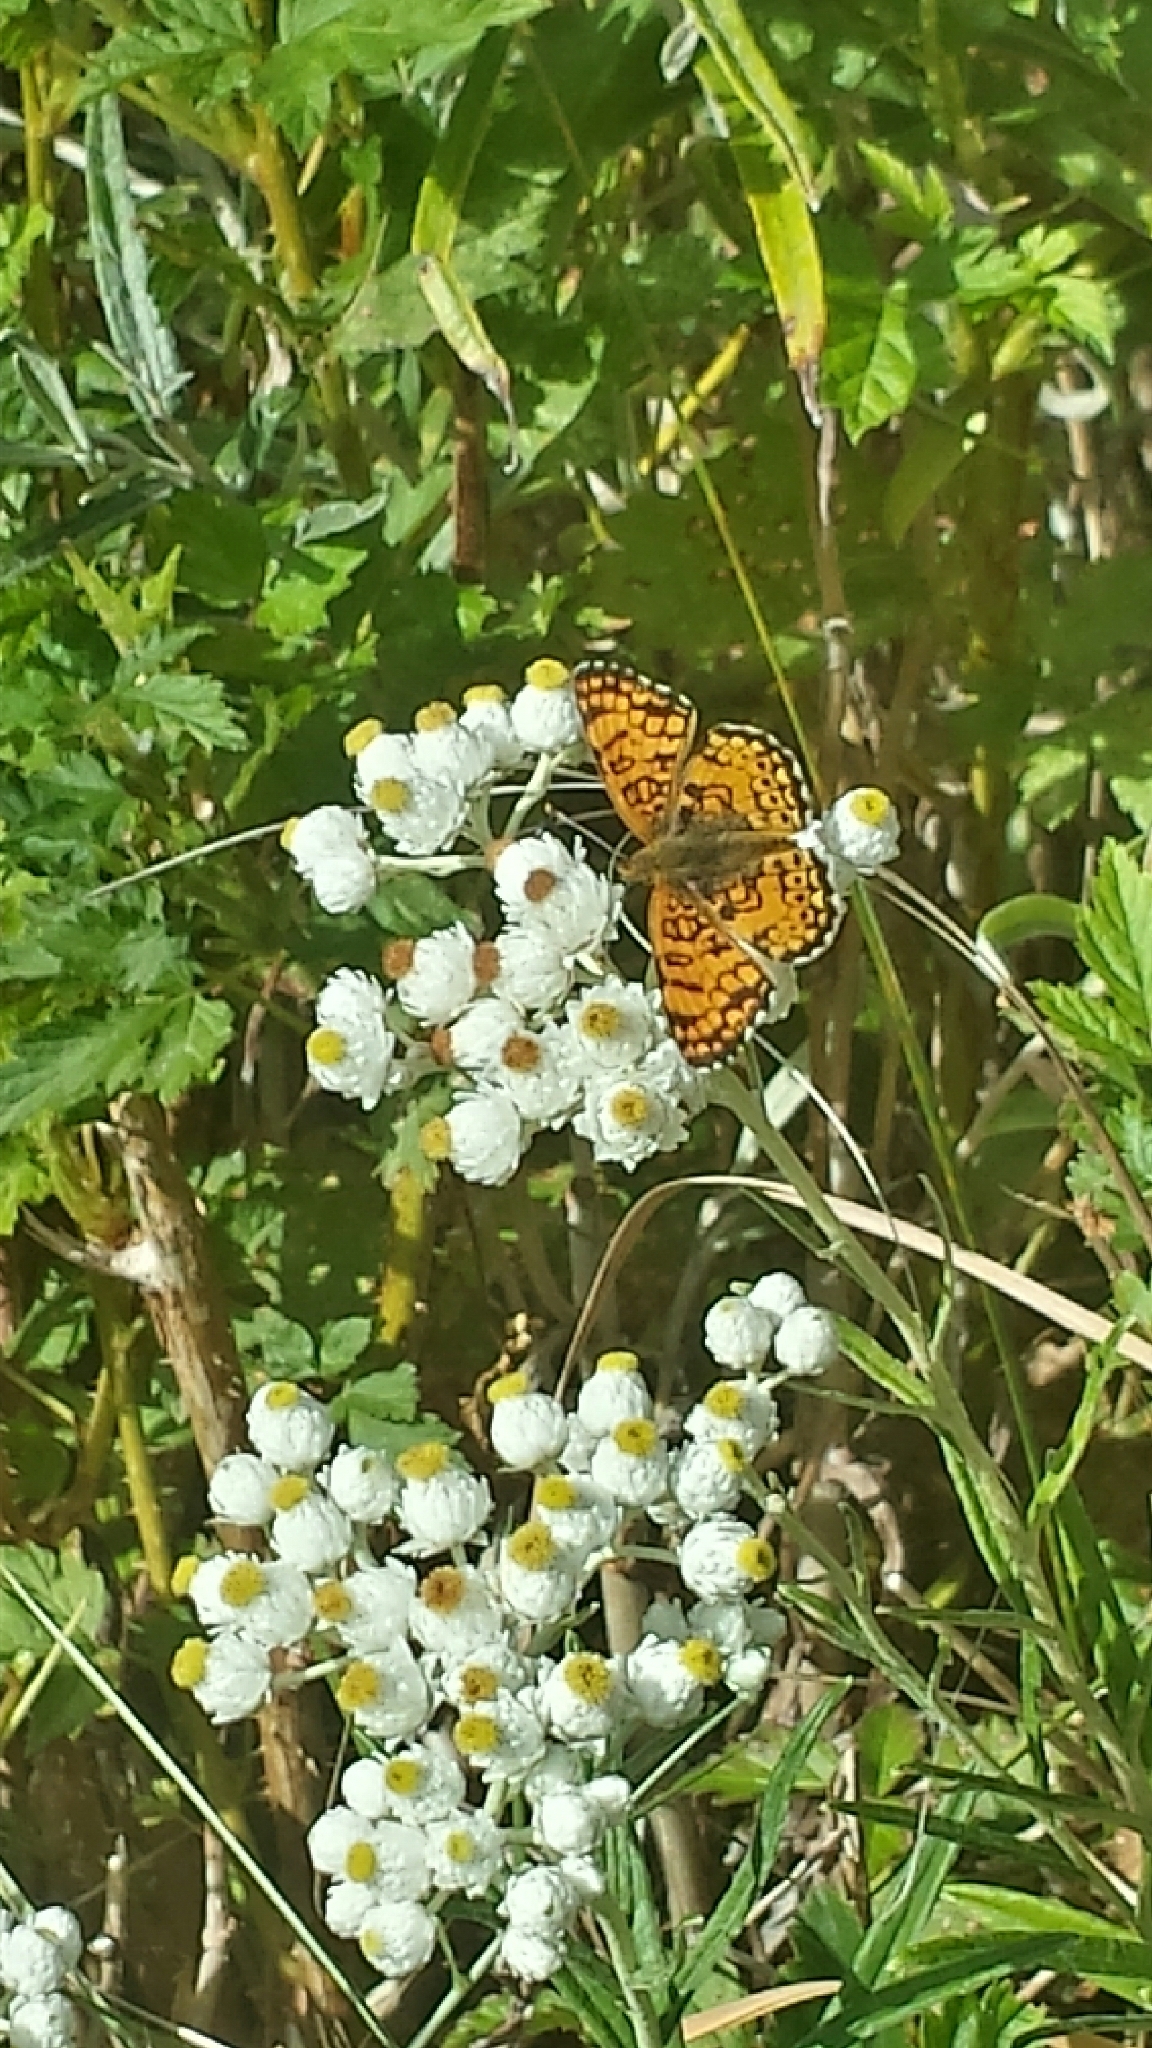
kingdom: Animalia
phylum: Arthropoda
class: Insecta
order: Lepidoptera
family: Nymphalidae
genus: Eresia
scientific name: Eresia aveyrona
